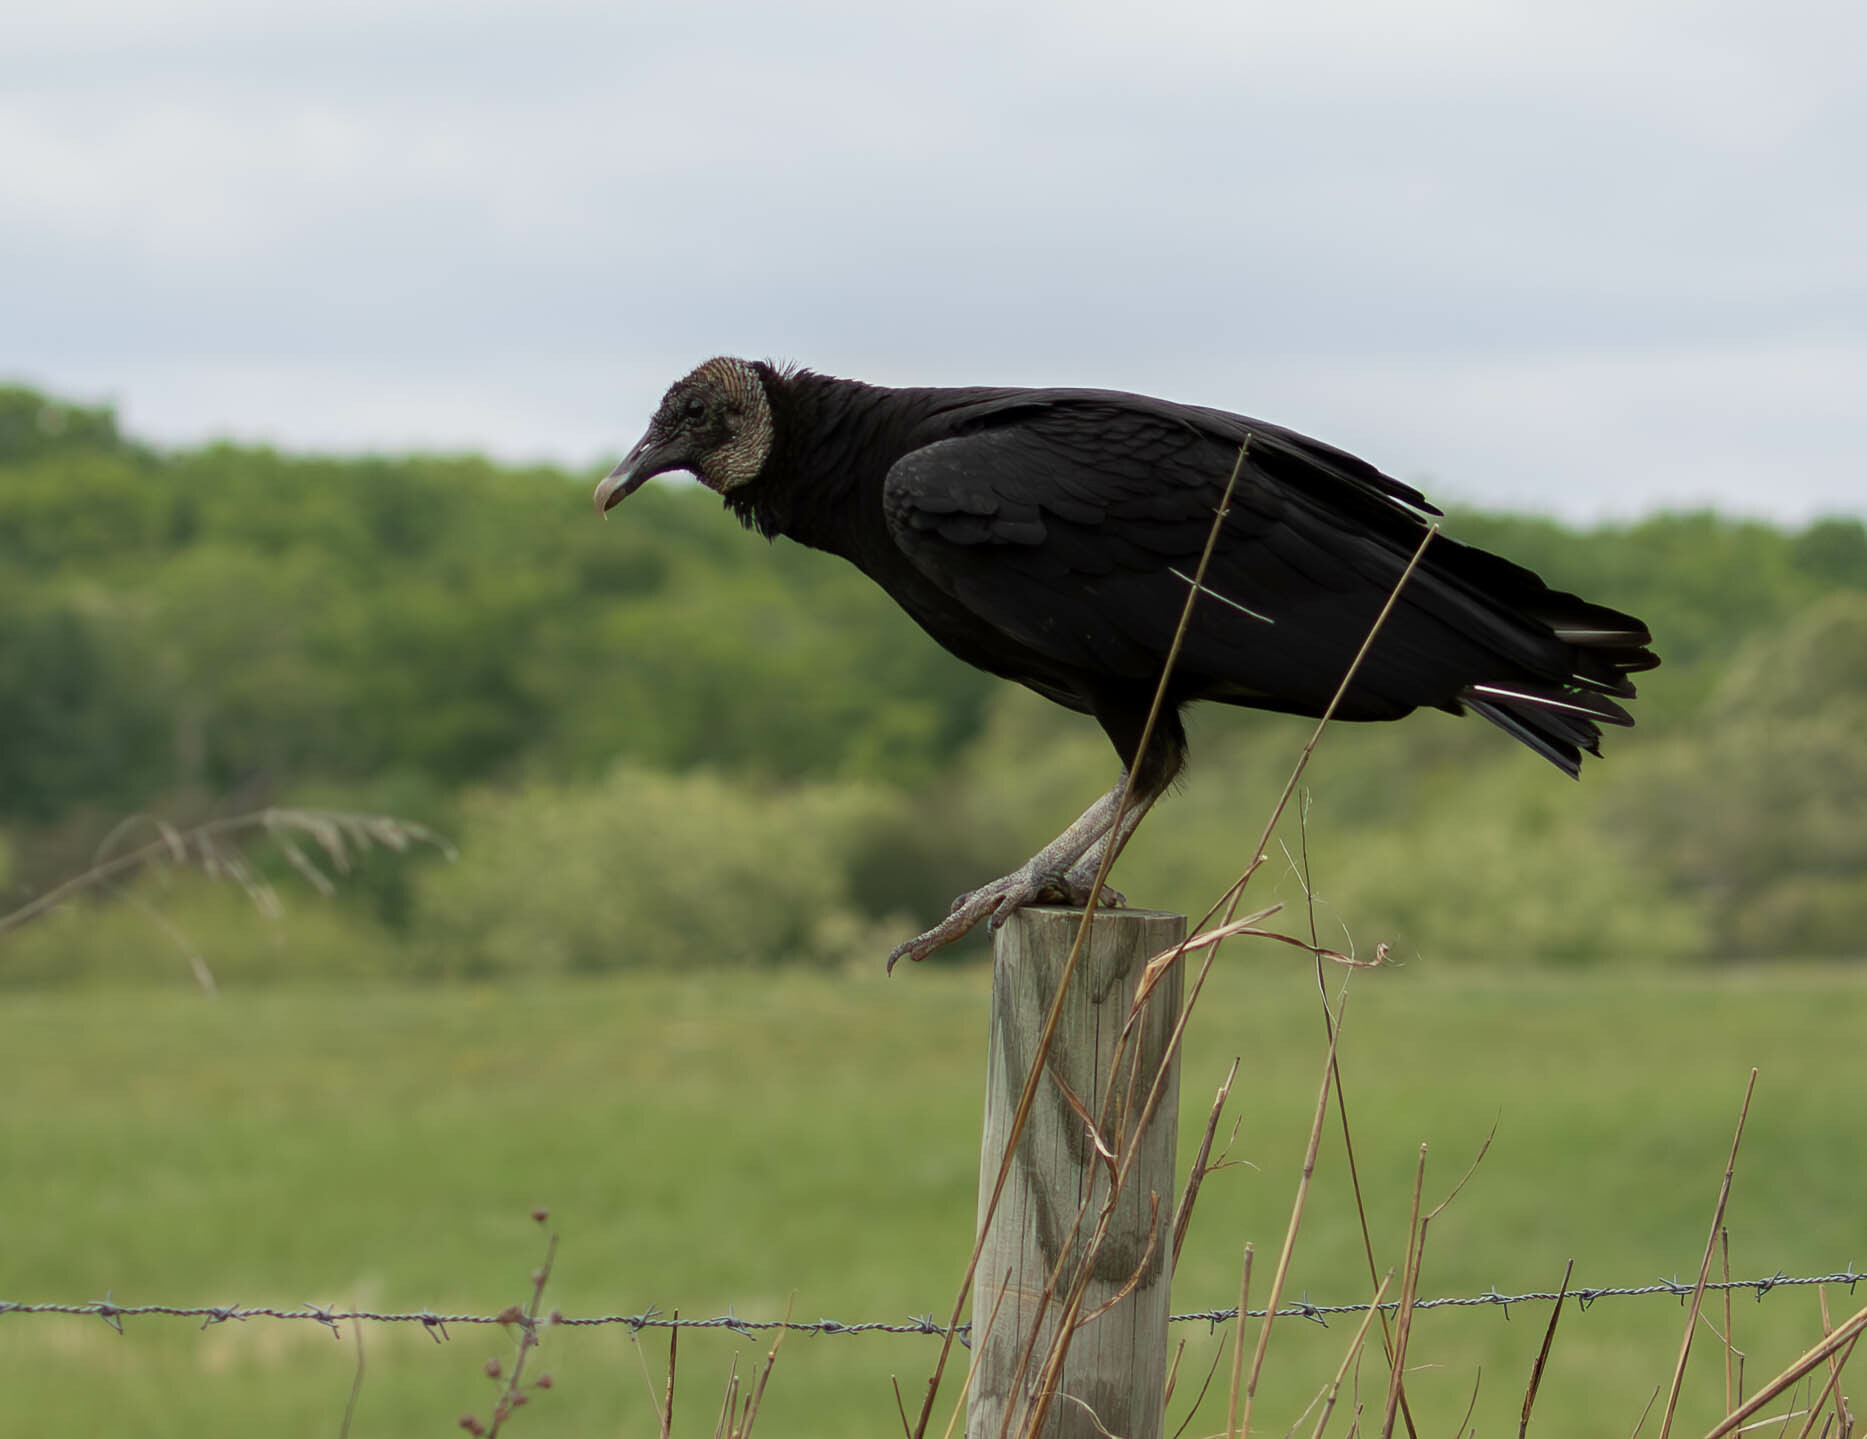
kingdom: Animalia
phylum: Chordata
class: Aves
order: Accipitriformes
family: Cathartidae
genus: Coragyps
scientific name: Coragyps atratus
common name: Black vulture
